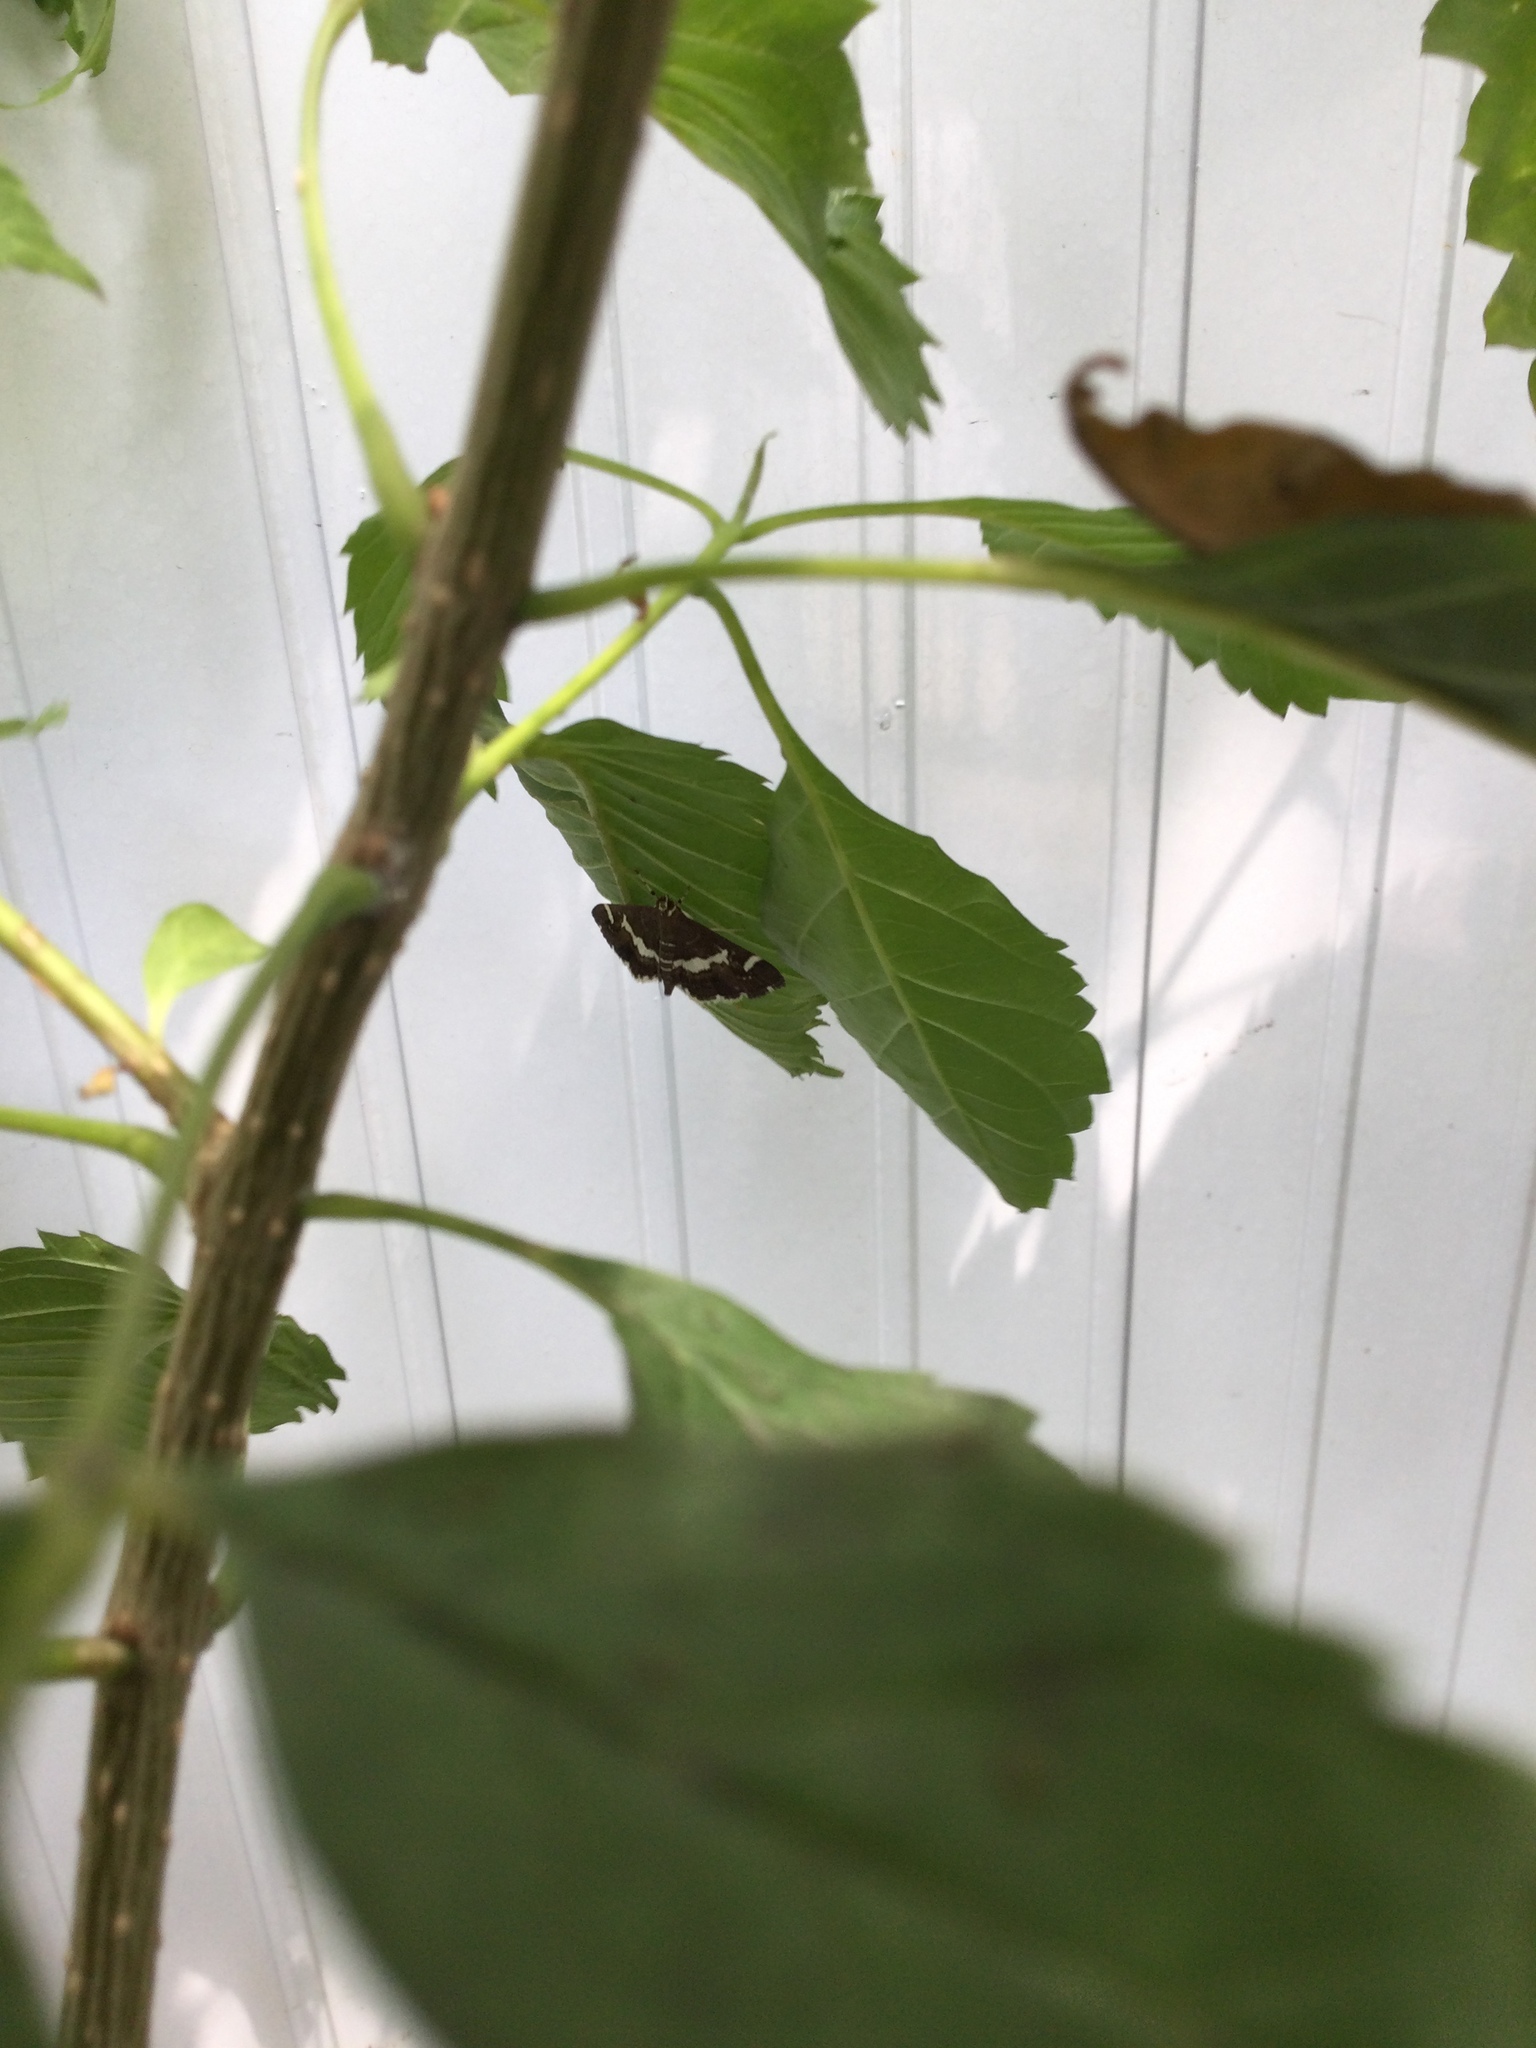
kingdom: Animalia
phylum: Arthropoda
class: Insecta
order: Lepidoptera
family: Crambidae
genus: Spoladea
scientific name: Spoladea recurvalis
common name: Beet webworm moth
